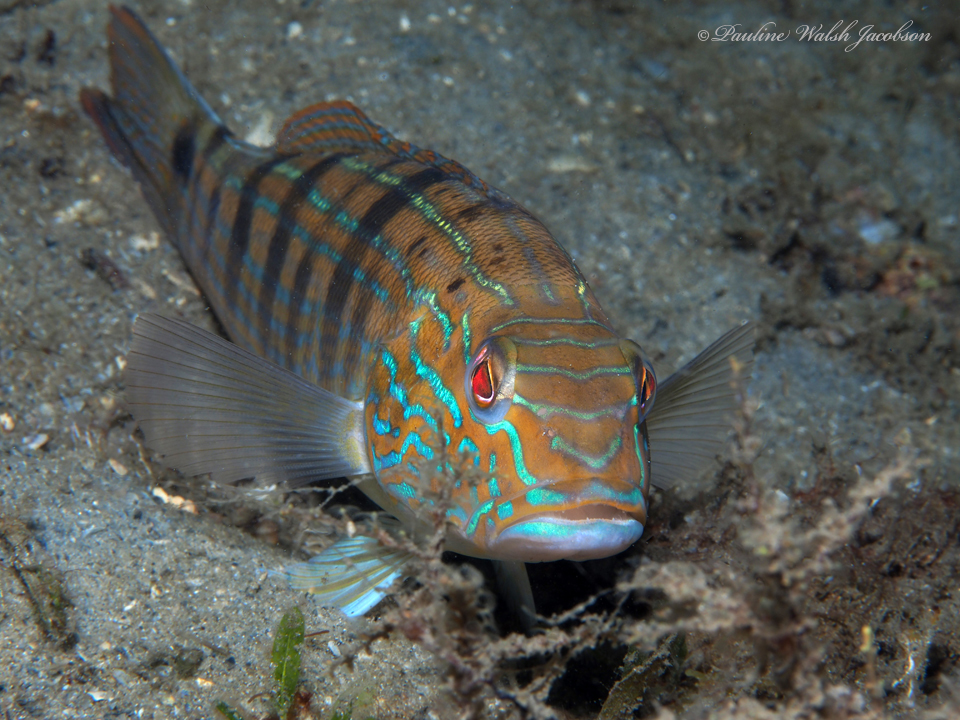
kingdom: Animalia
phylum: Chordata
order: Perciformes
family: Serranidae
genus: Diplectrum
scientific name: Diplectrum formosum
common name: Sand perch
